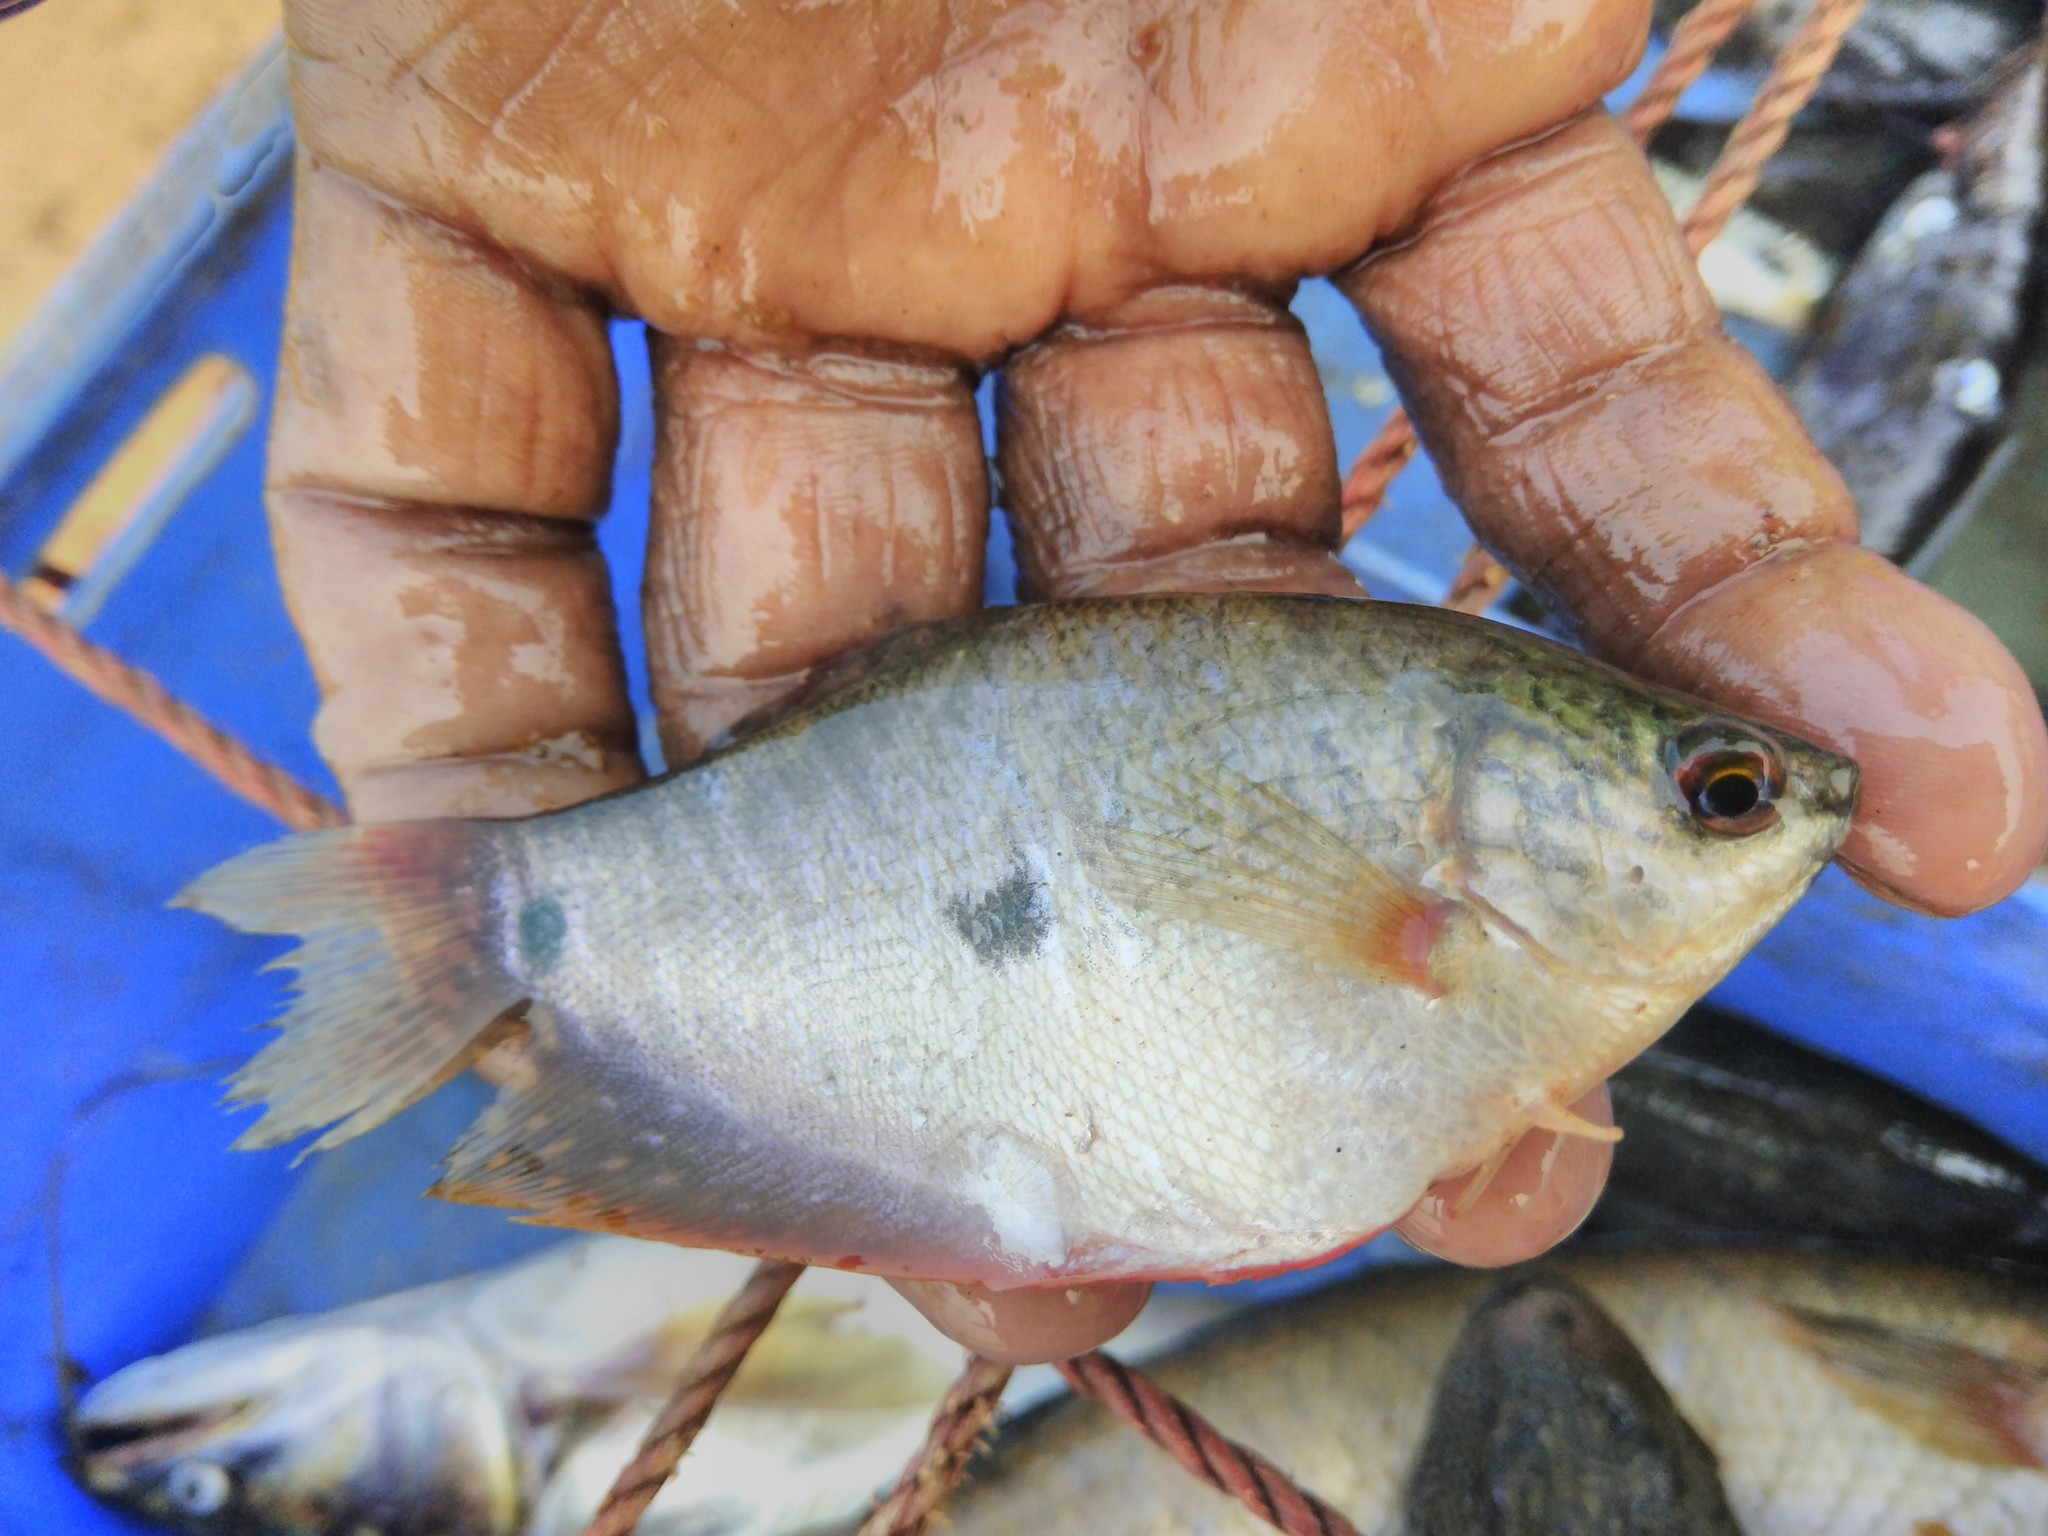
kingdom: Animalia
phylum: Chordata
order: Perciformes
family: Osphronemidae
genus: Trichopodus
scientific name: Trichopodus trichopterus
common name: Blue gourami
